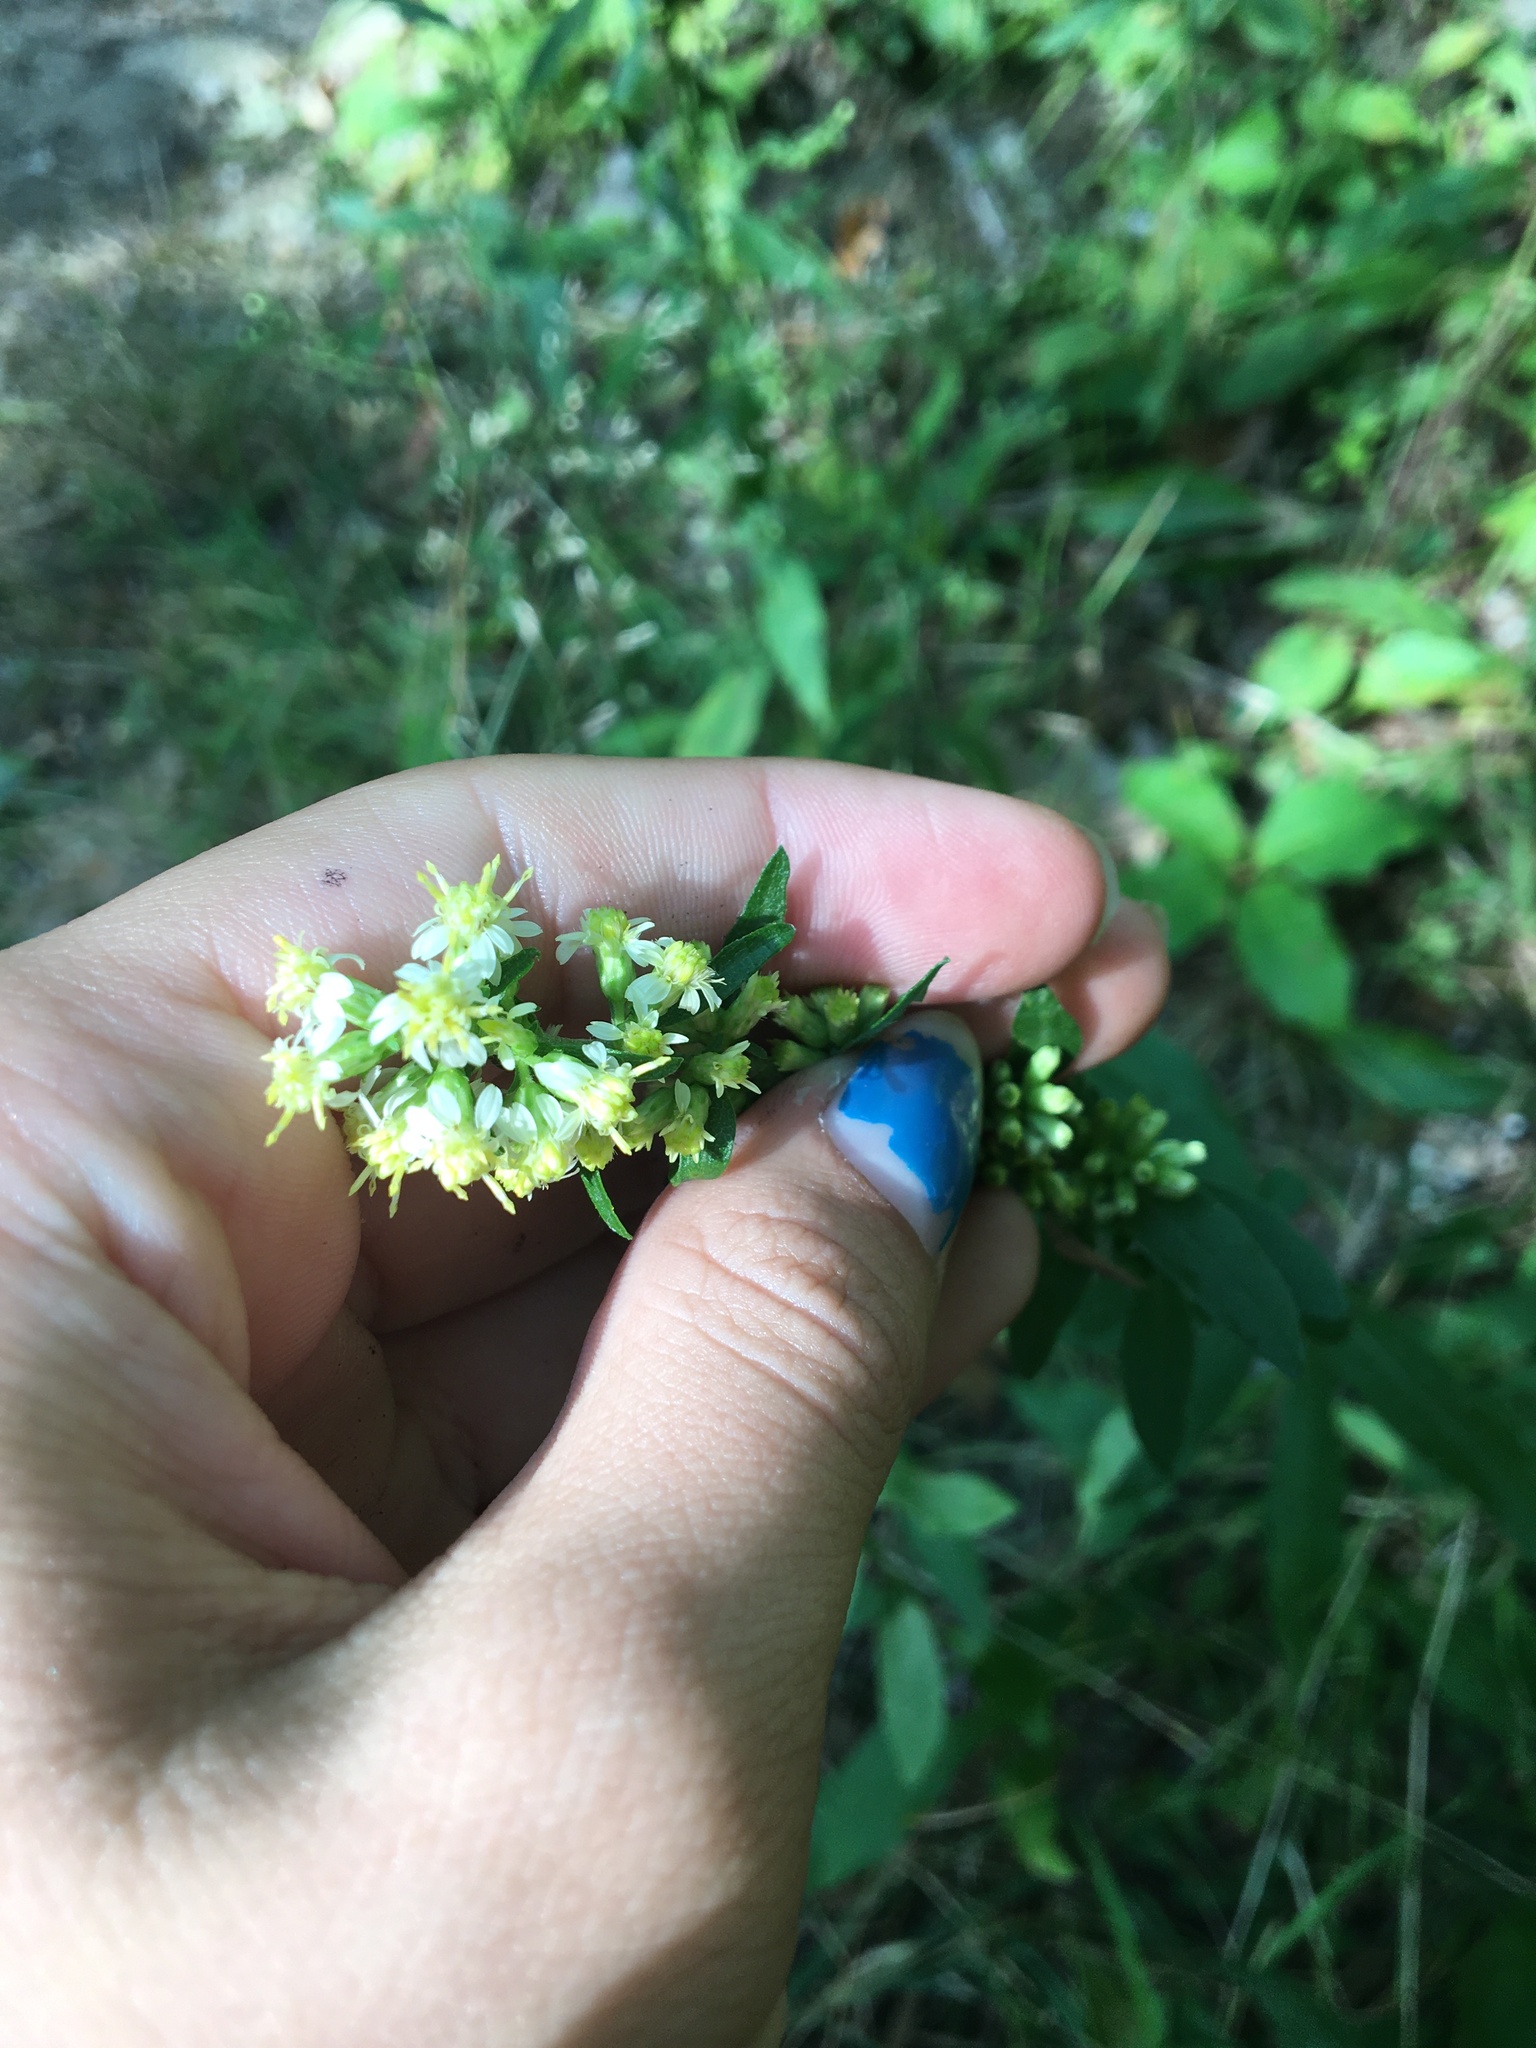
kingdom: Plantae
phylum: Tracheophyta
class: Magnoliopsida
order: Asterales
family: Asteraceae
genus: Solidago
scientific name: Solidago bicolor
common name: Silverrod
